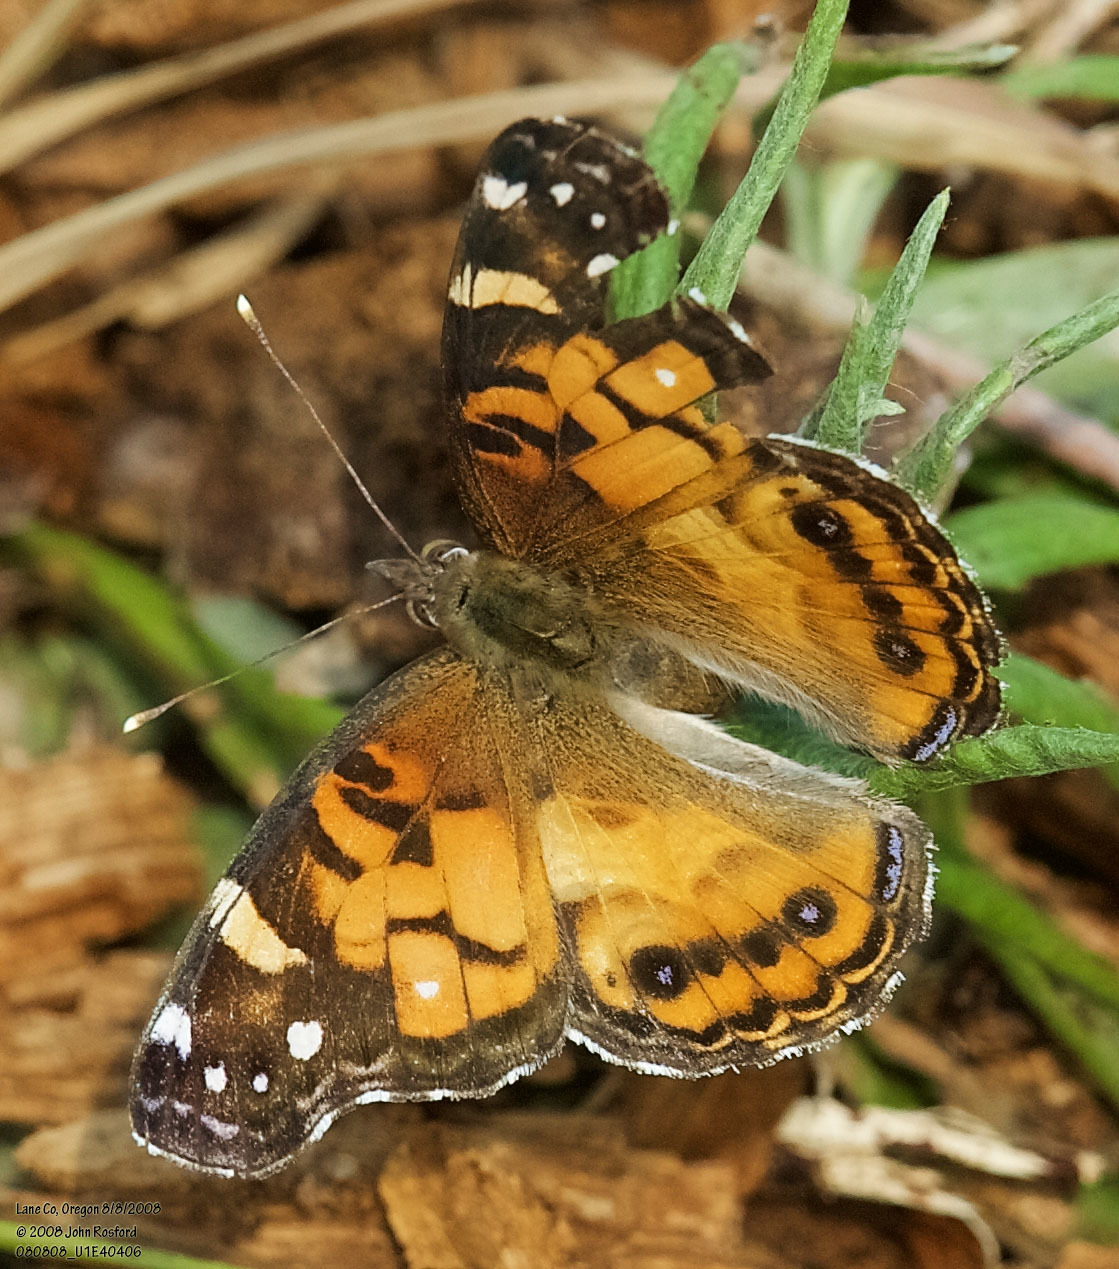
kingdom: Animalia
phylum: Arthropoda
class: Insecta
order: Lepidoptera
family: Nymphalidae
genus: Vanessa
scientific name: Vanessa virginiensis
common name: American lady
